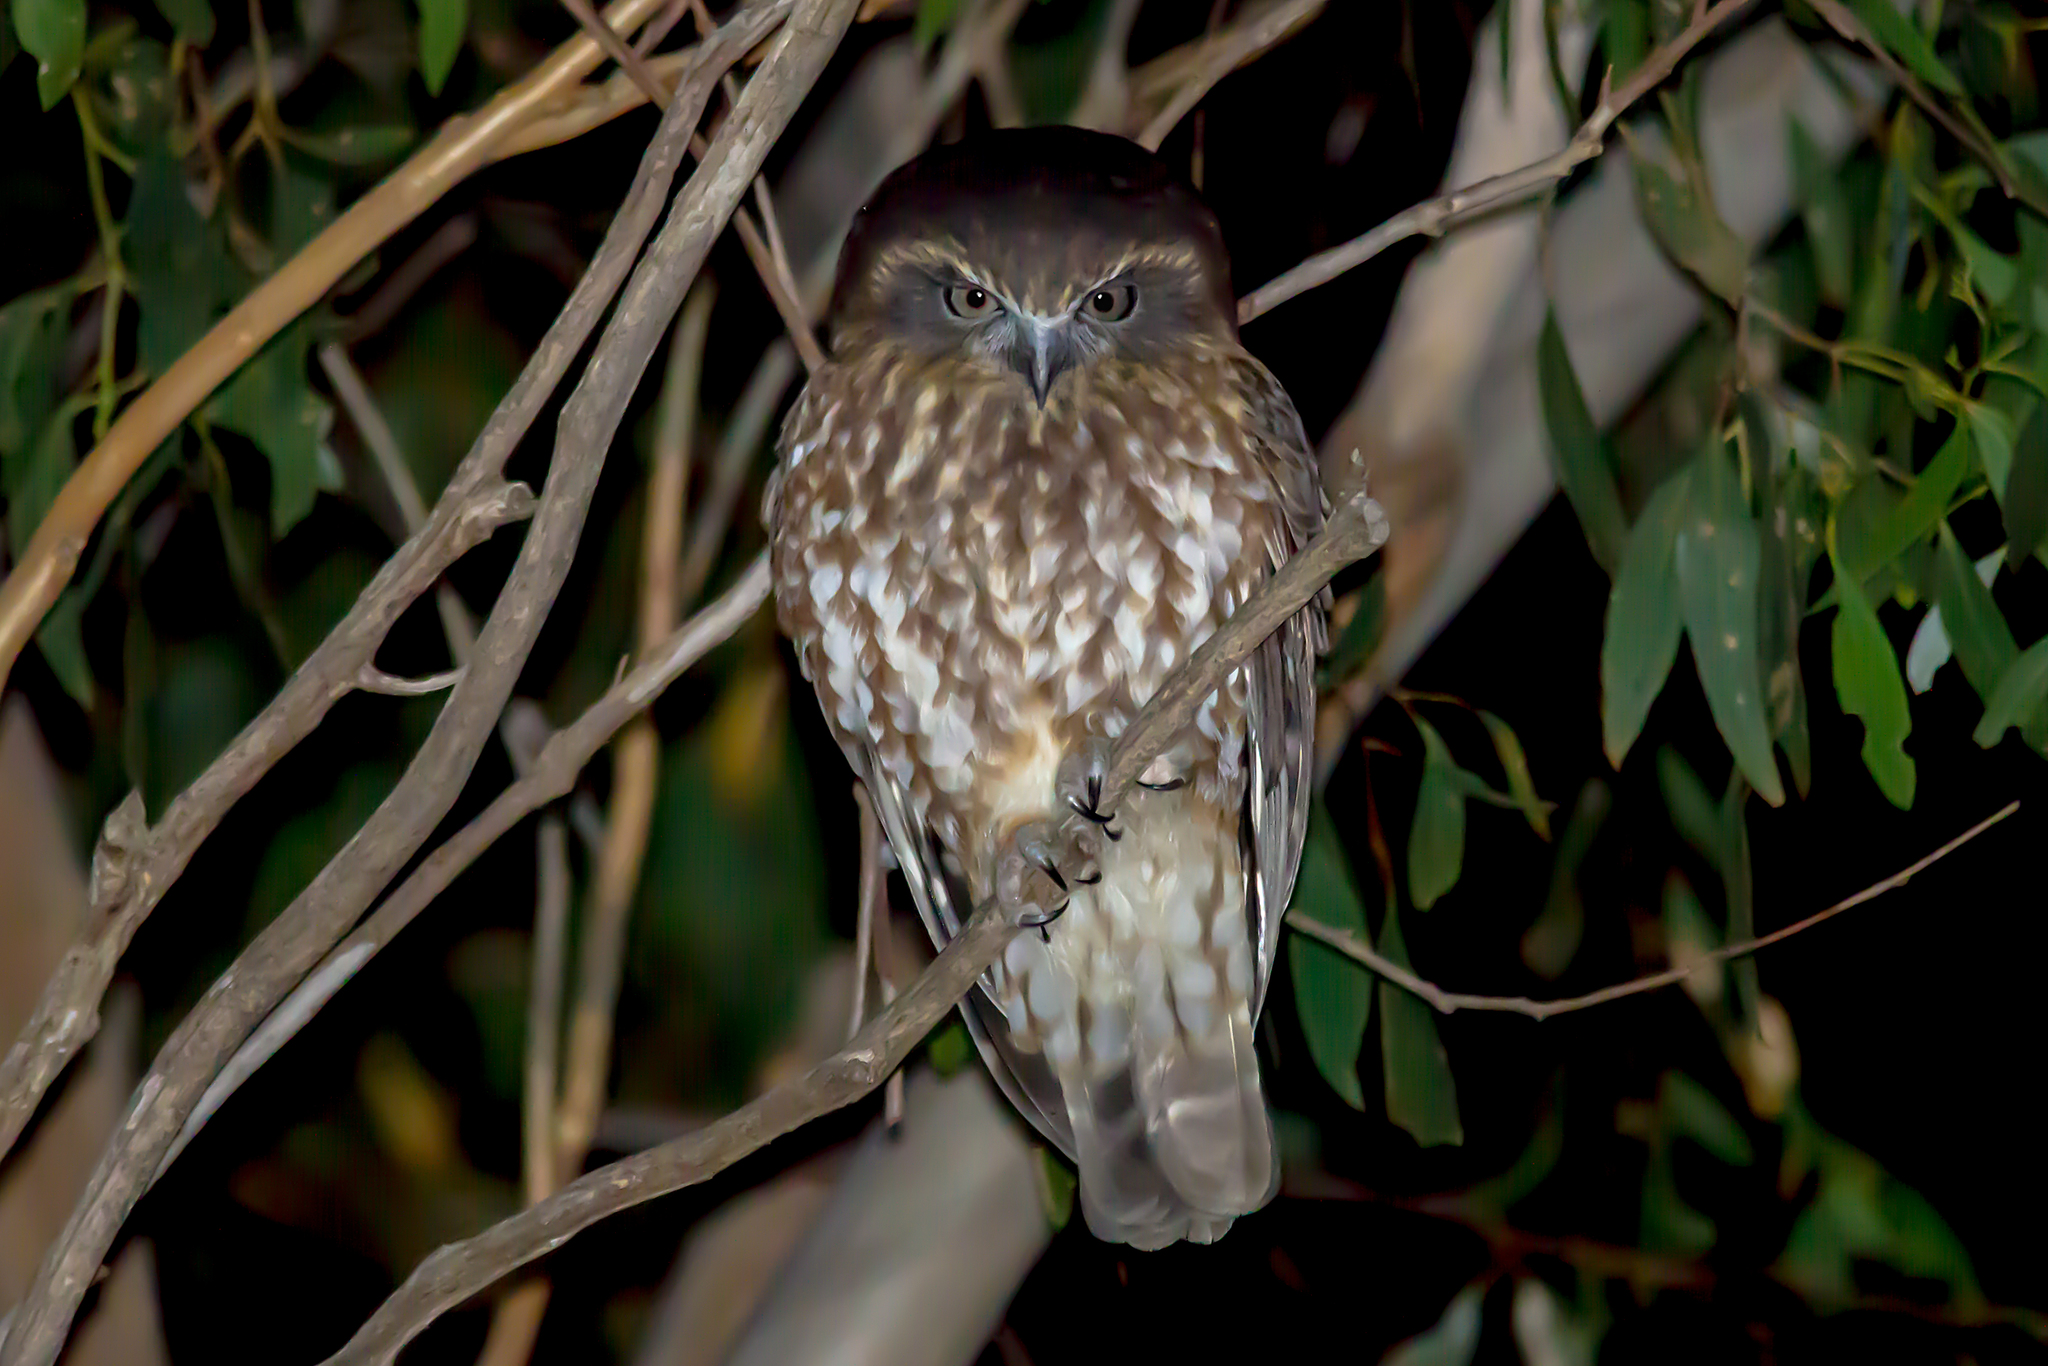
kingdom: Animalia
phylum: Chordata
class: Aves
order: Strigiformes
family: Strigidae
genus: Ninox
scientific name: Ninox boobook
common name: Southern boobook
